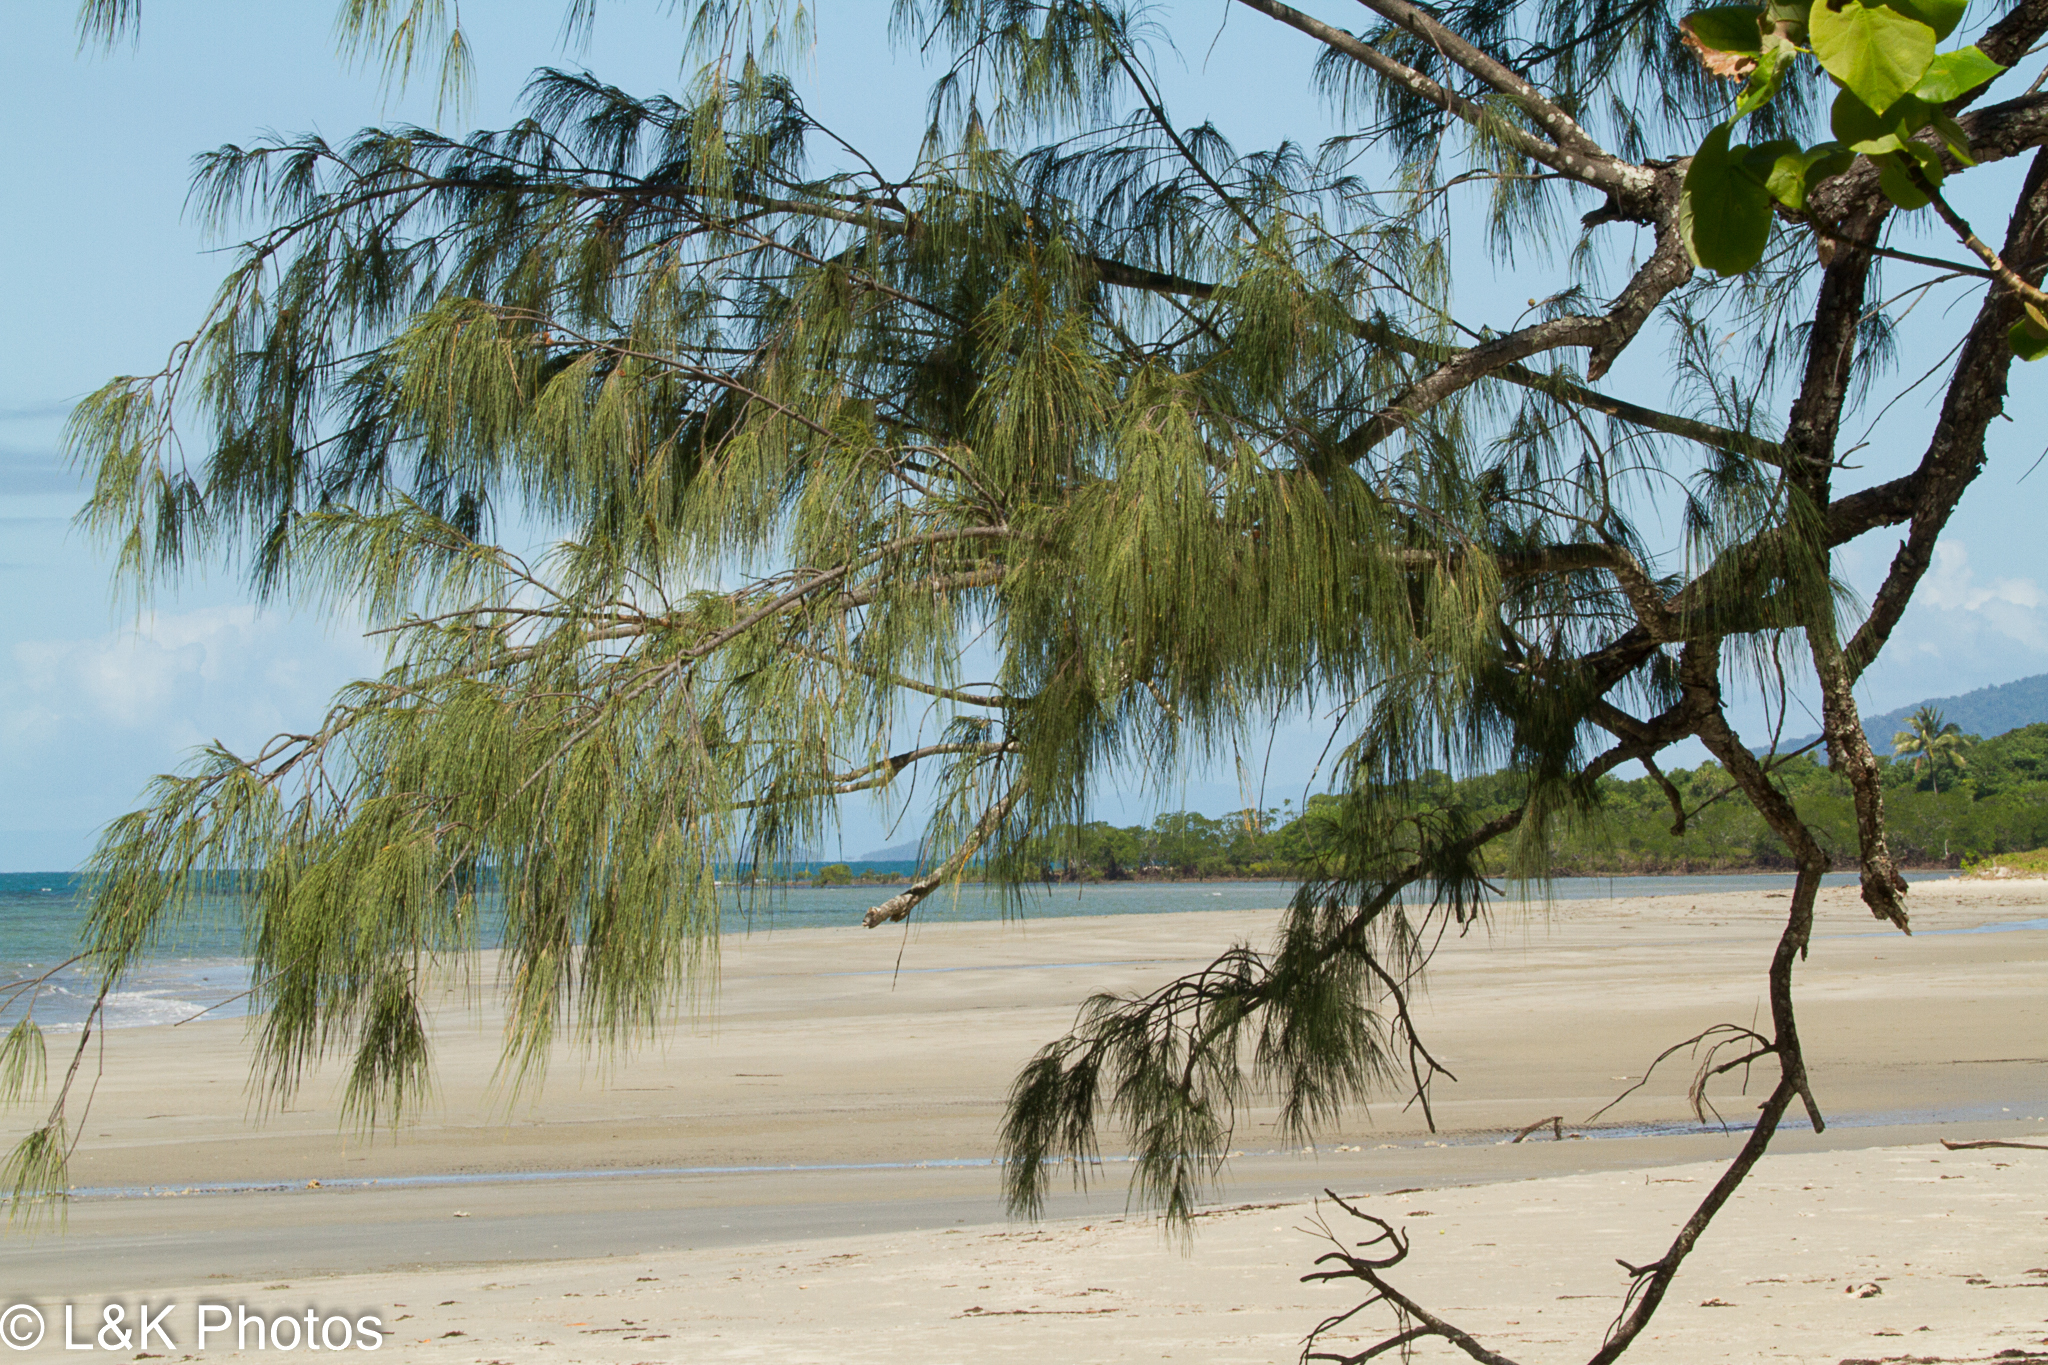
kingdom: Plantae
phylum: Tracheophyta
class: Magnoliopsida
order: Fagales
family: Casuarinaceae
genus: Casuarina
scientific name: Casuarina equisetifolia
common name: Beach sheoak
